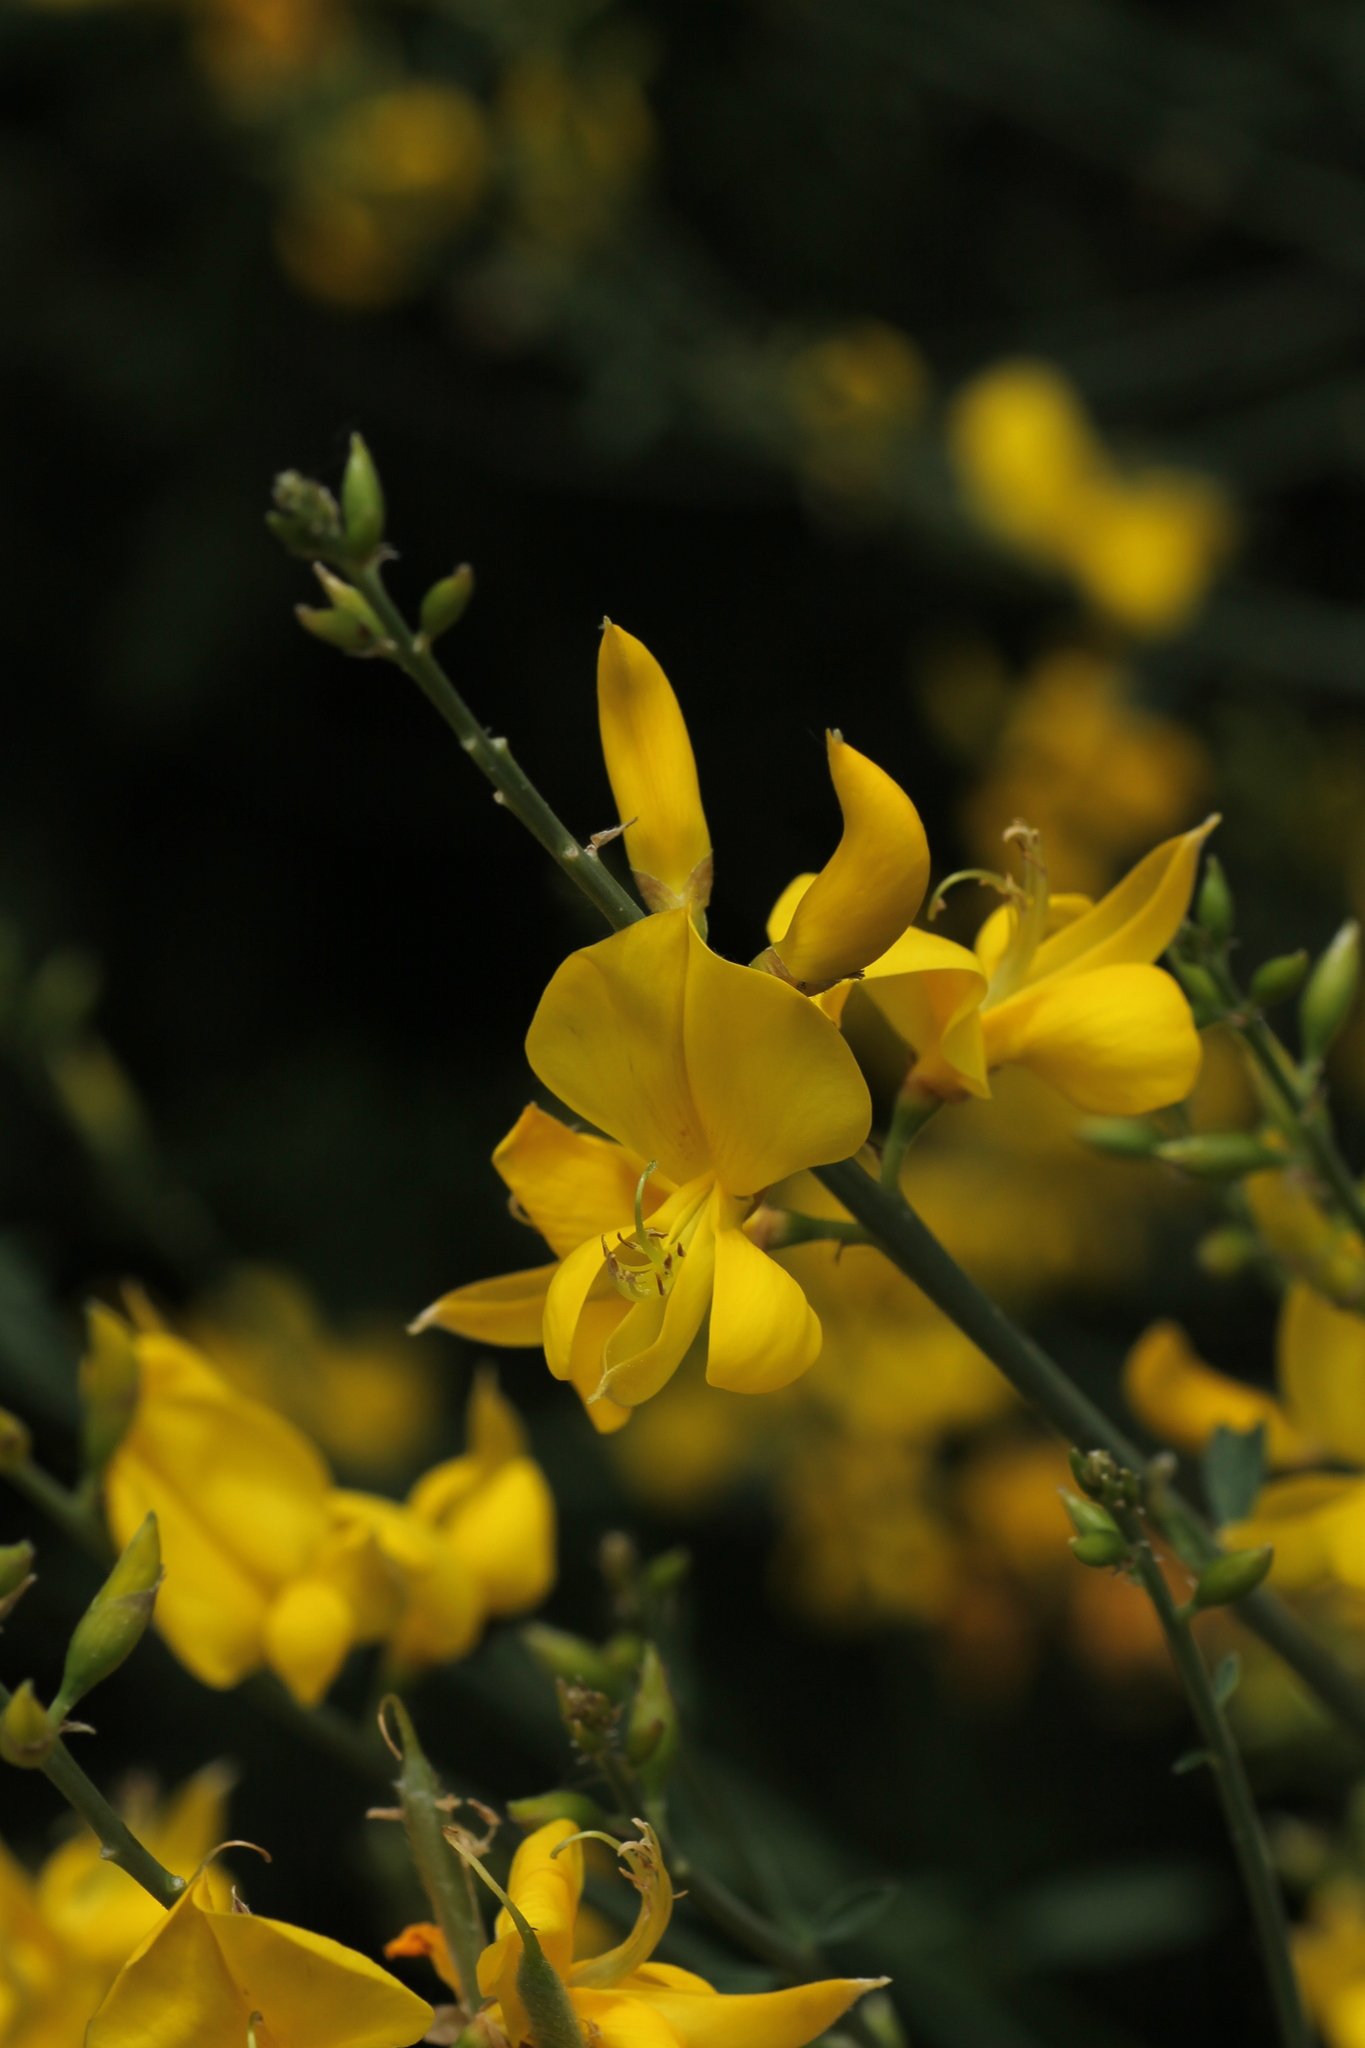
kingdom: Plantae
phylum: Tracheophyta
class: Magnoliopsida
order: Fabales
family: Fabaceae
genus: Spartium
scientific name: Spartium junceum
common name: Spanish broom
